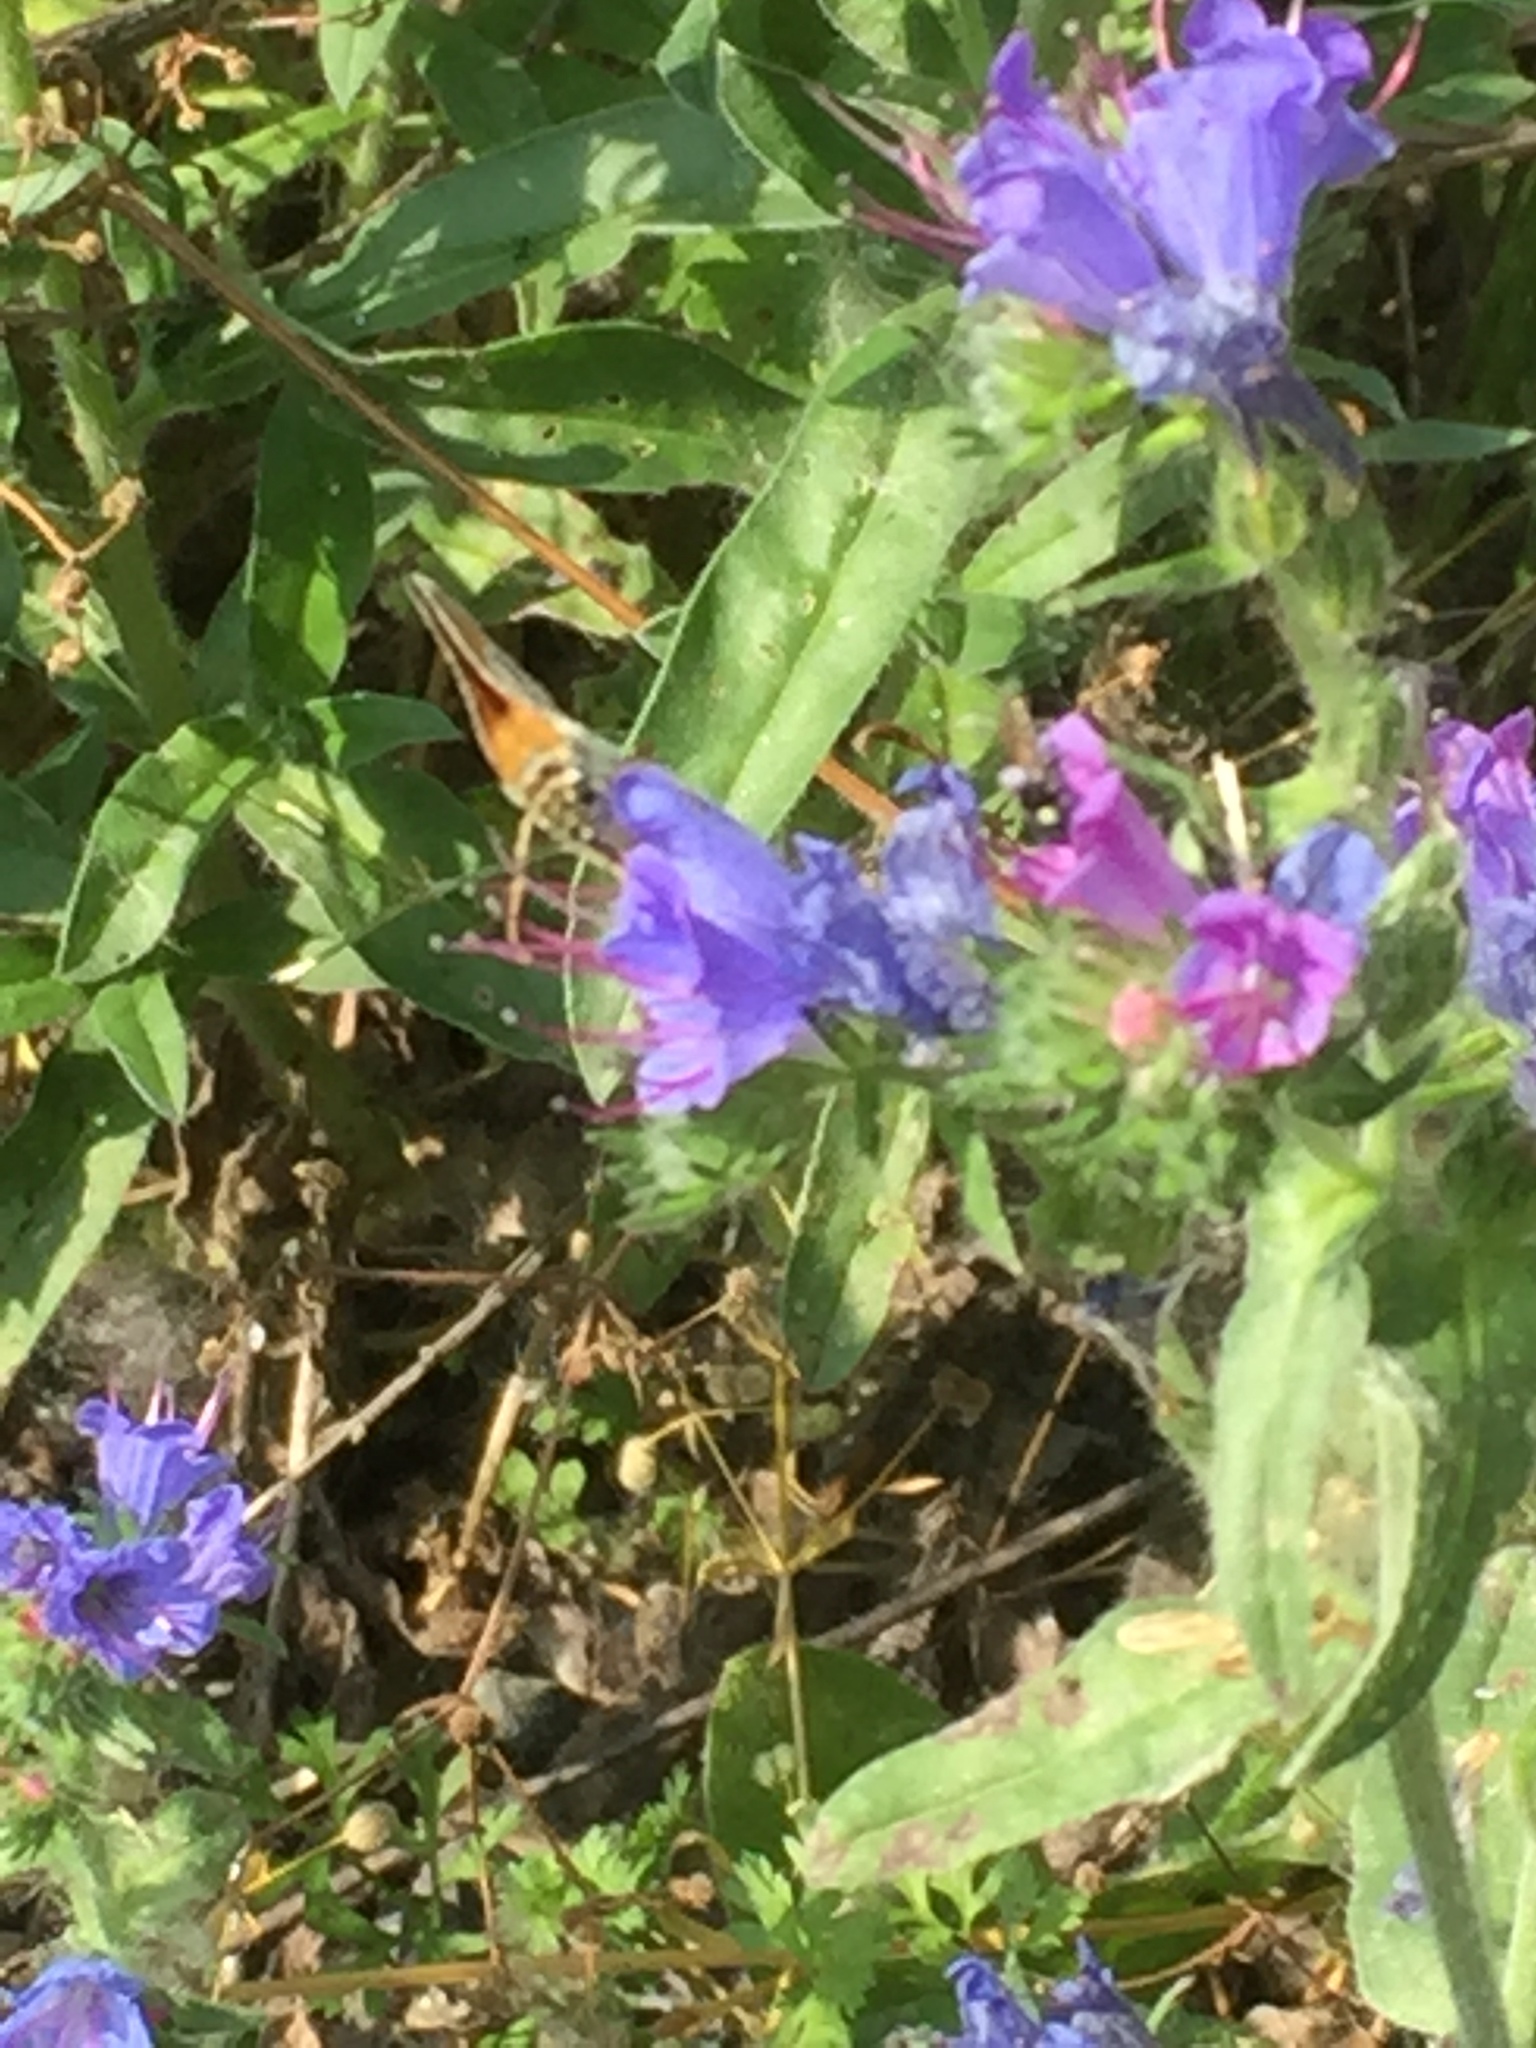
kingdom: Plantae
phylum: Tracheophyta
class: Magnoliopsida
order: Boraginales
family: Boraginaceae
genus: Echium
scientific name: Echium vulgare
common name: Common viper's bugloss
